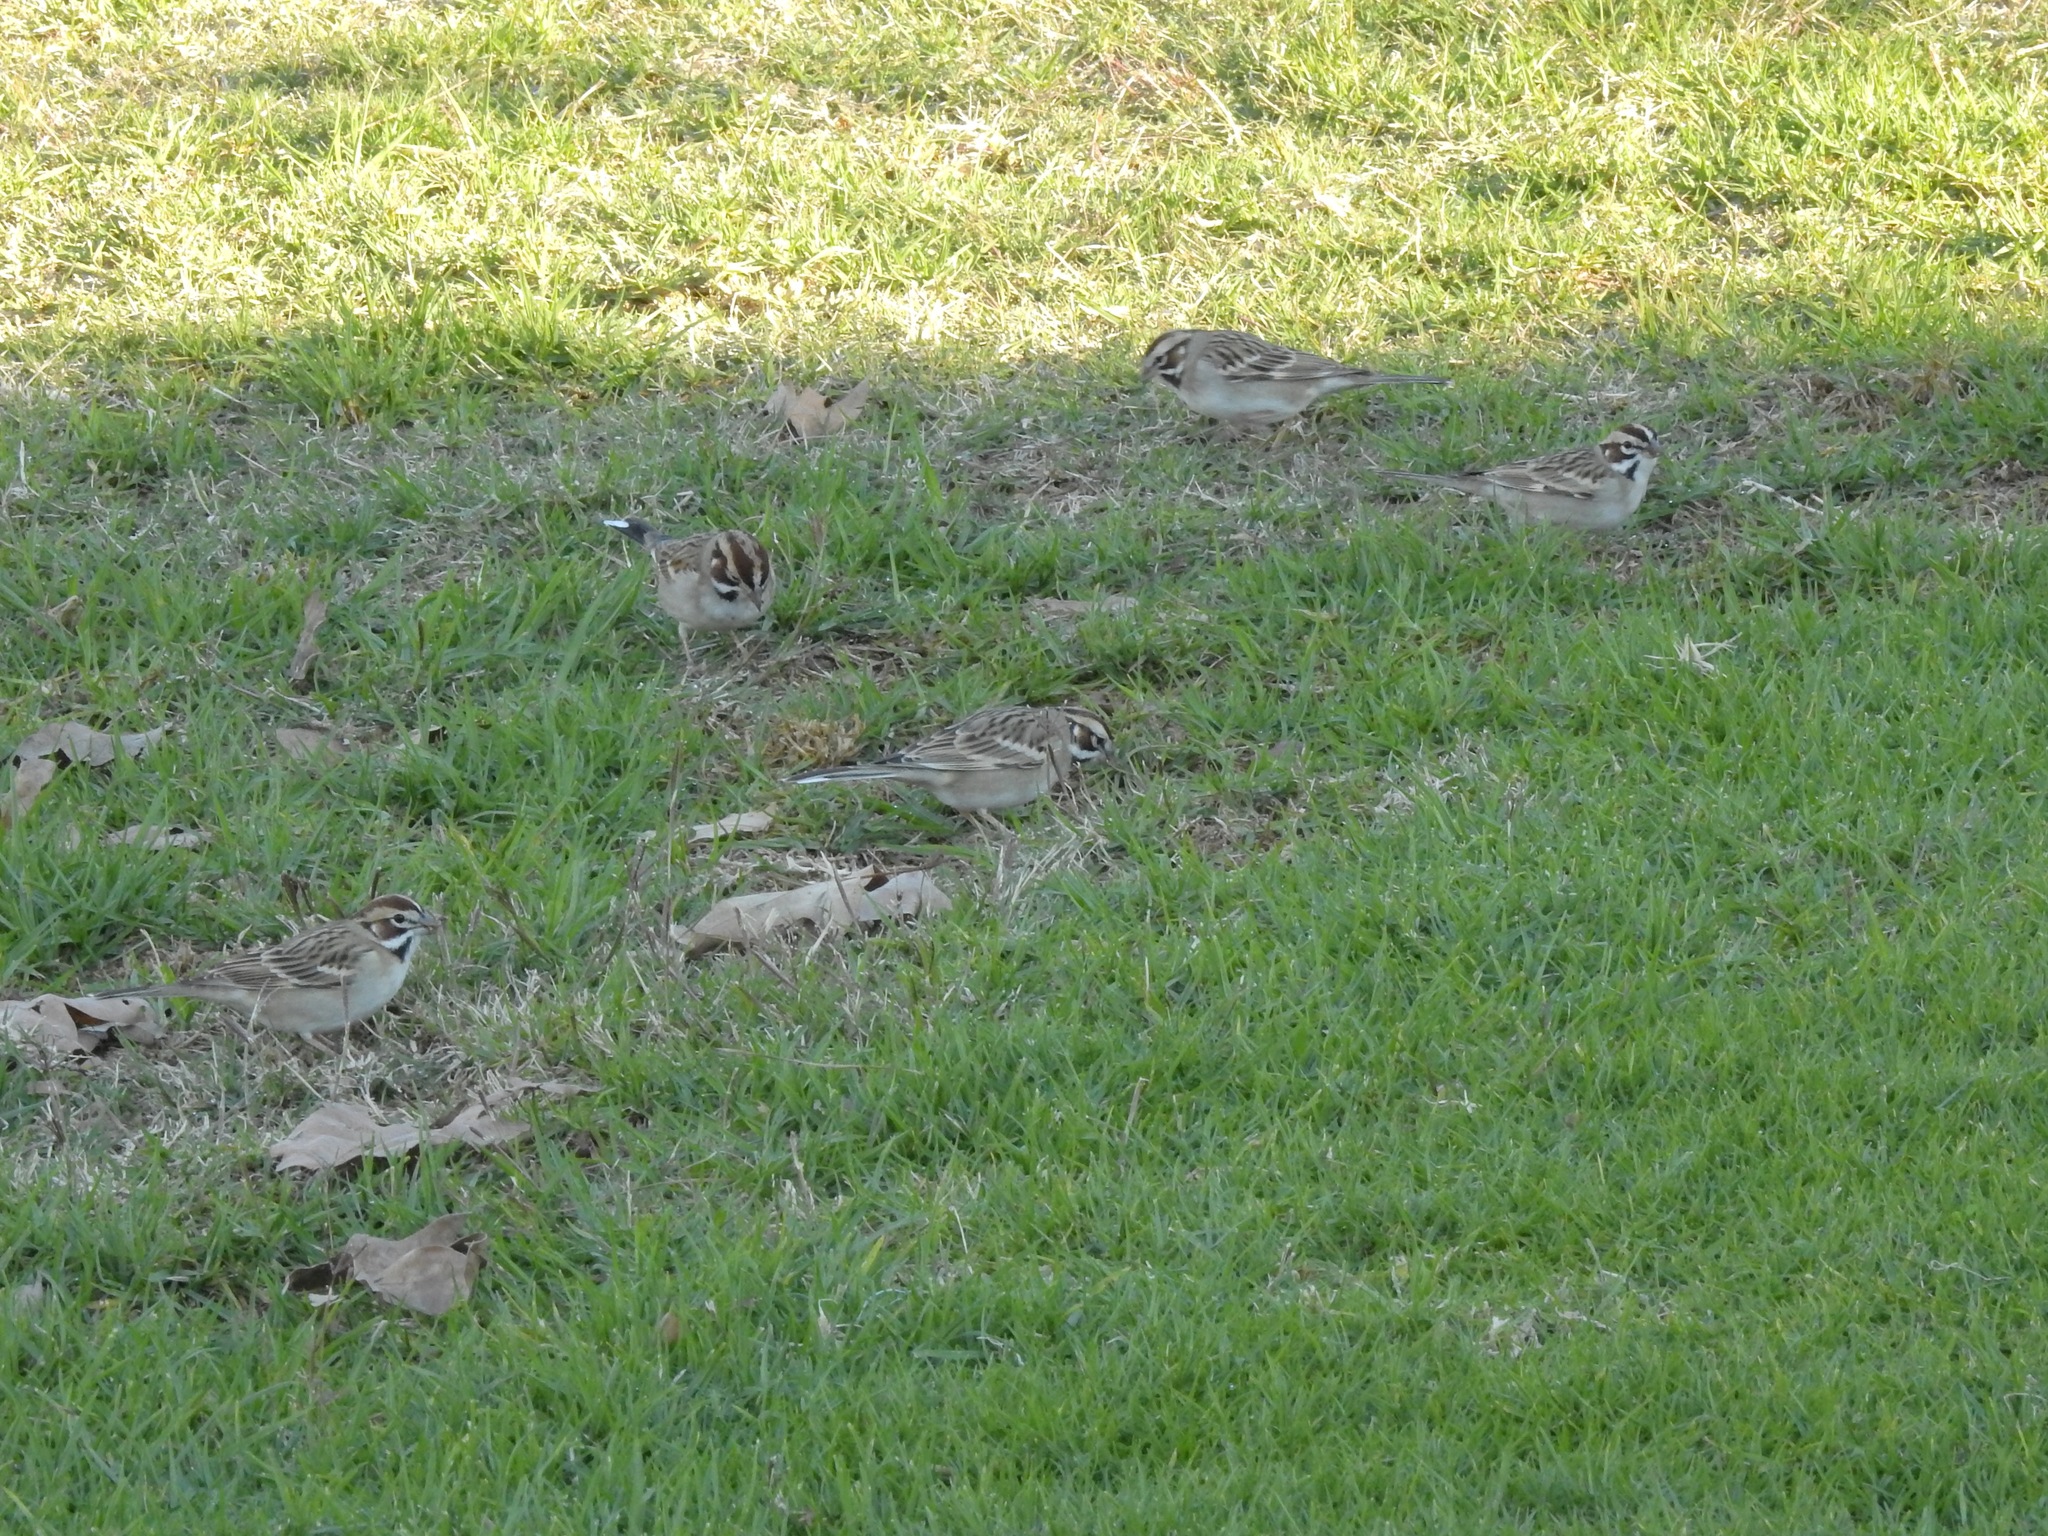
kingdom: Animalia
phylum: Chordata
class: Aves
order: Passeriformes
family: Passerellidae
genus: Chondestes
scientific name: Chondestes grammacus
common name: Lark sparrow
